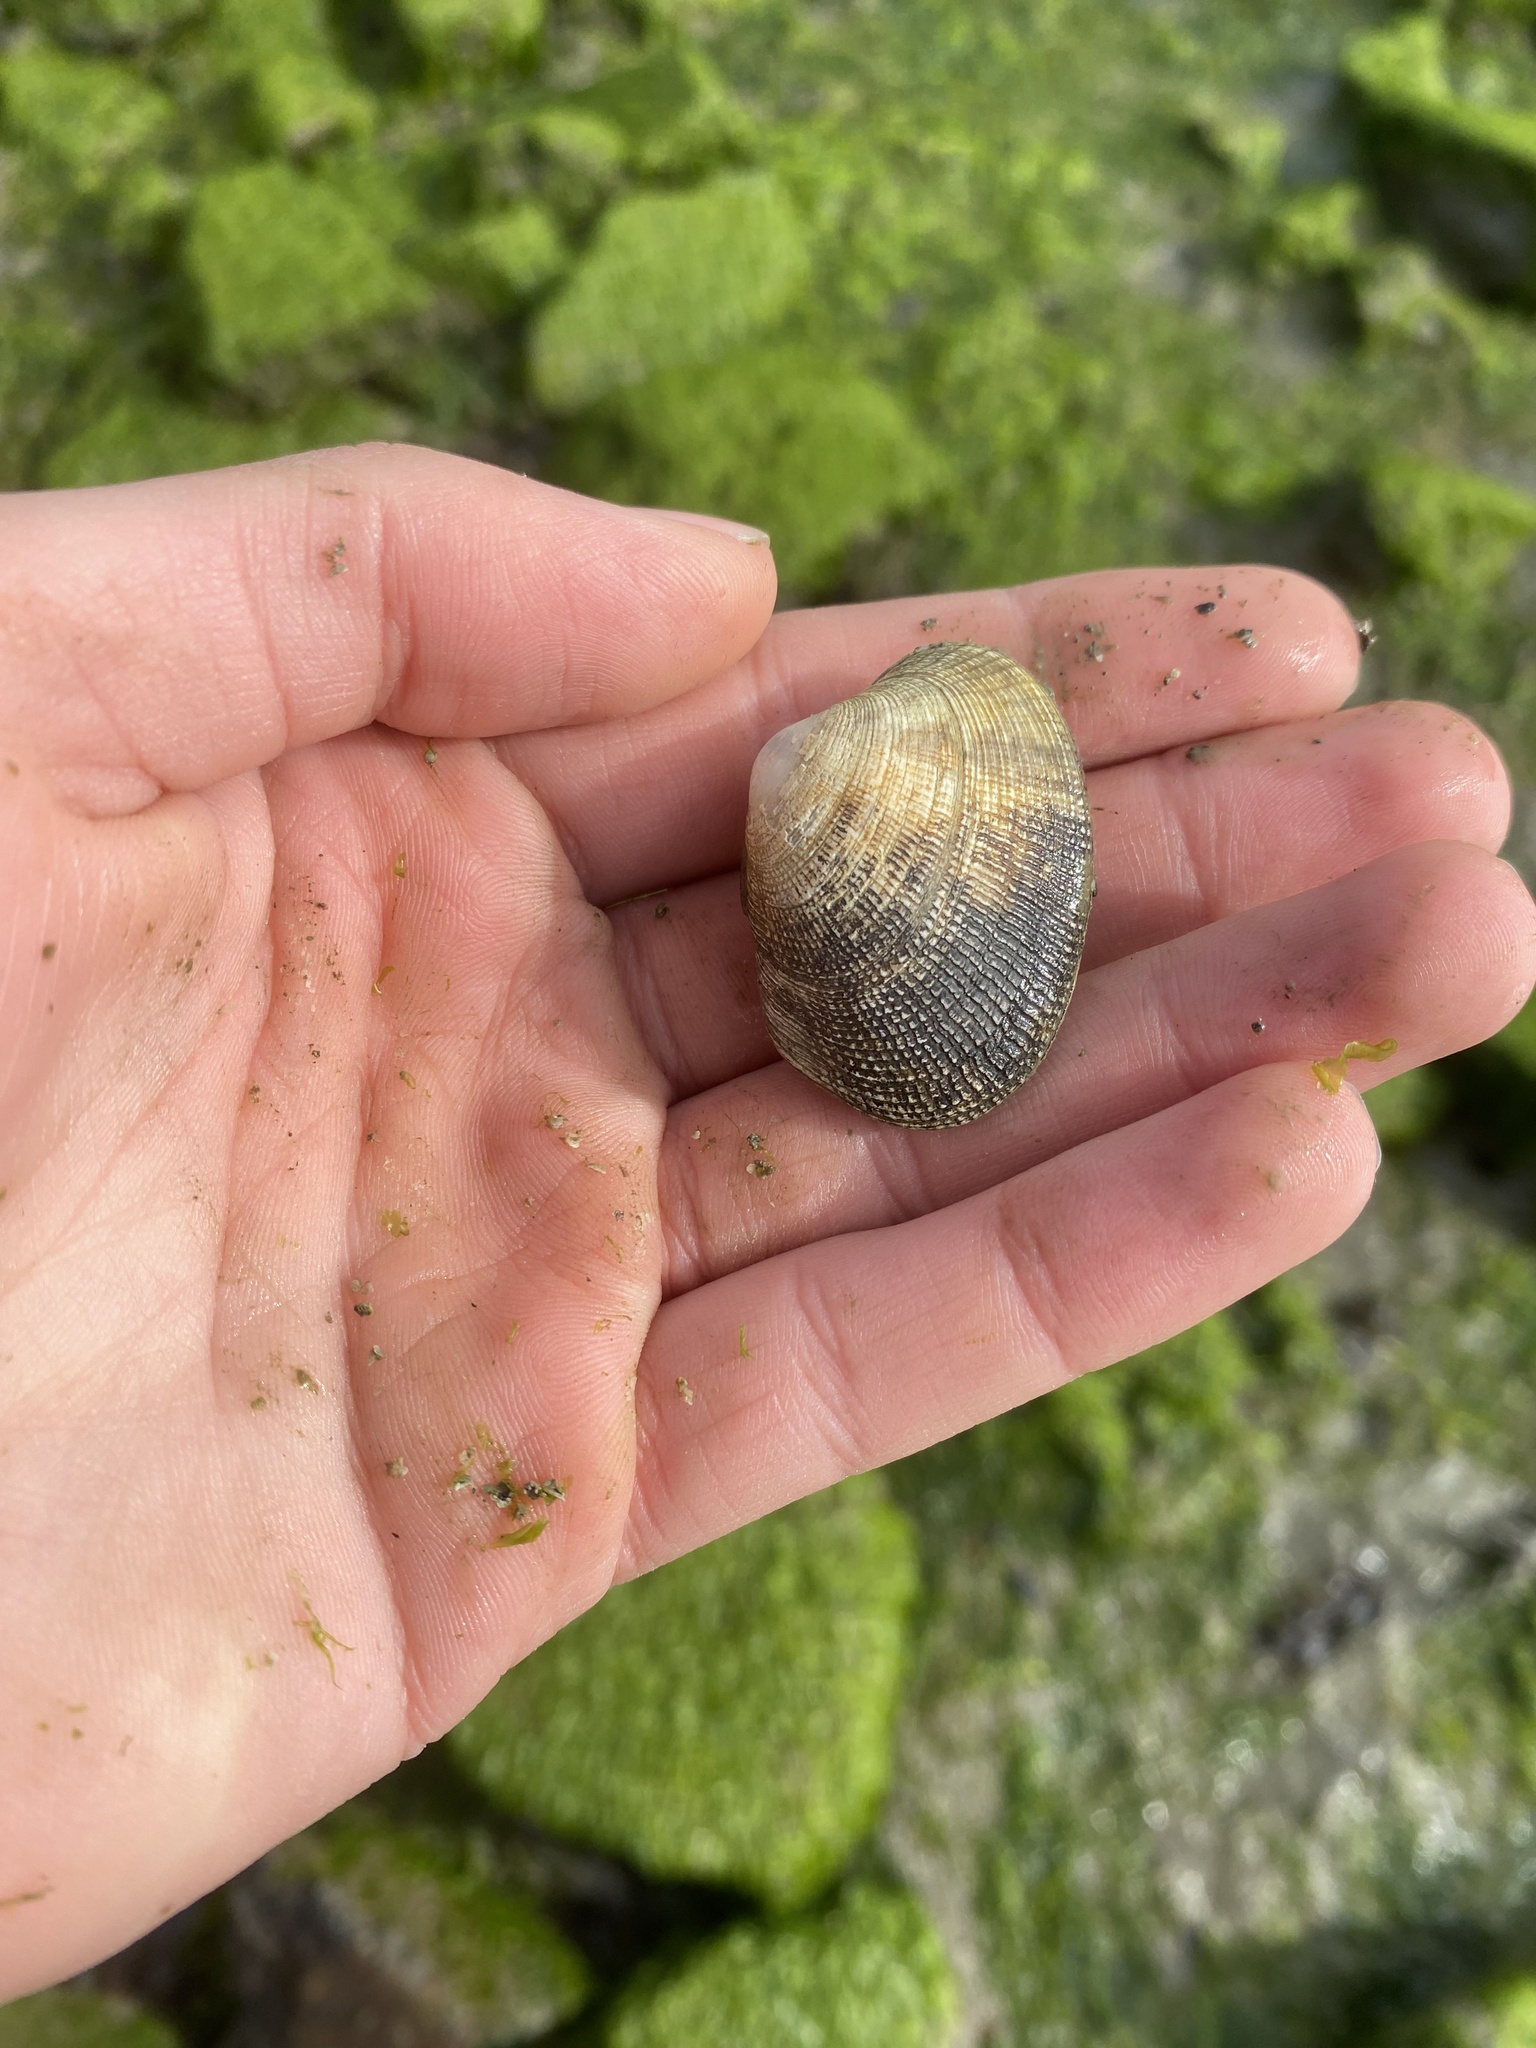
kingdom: Animalia
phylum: Mollusca
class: Bivalvia
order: Venerida
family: Veneridae
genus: Ruditapes
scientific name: Ruditapes philippinarum
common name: Manila clam
